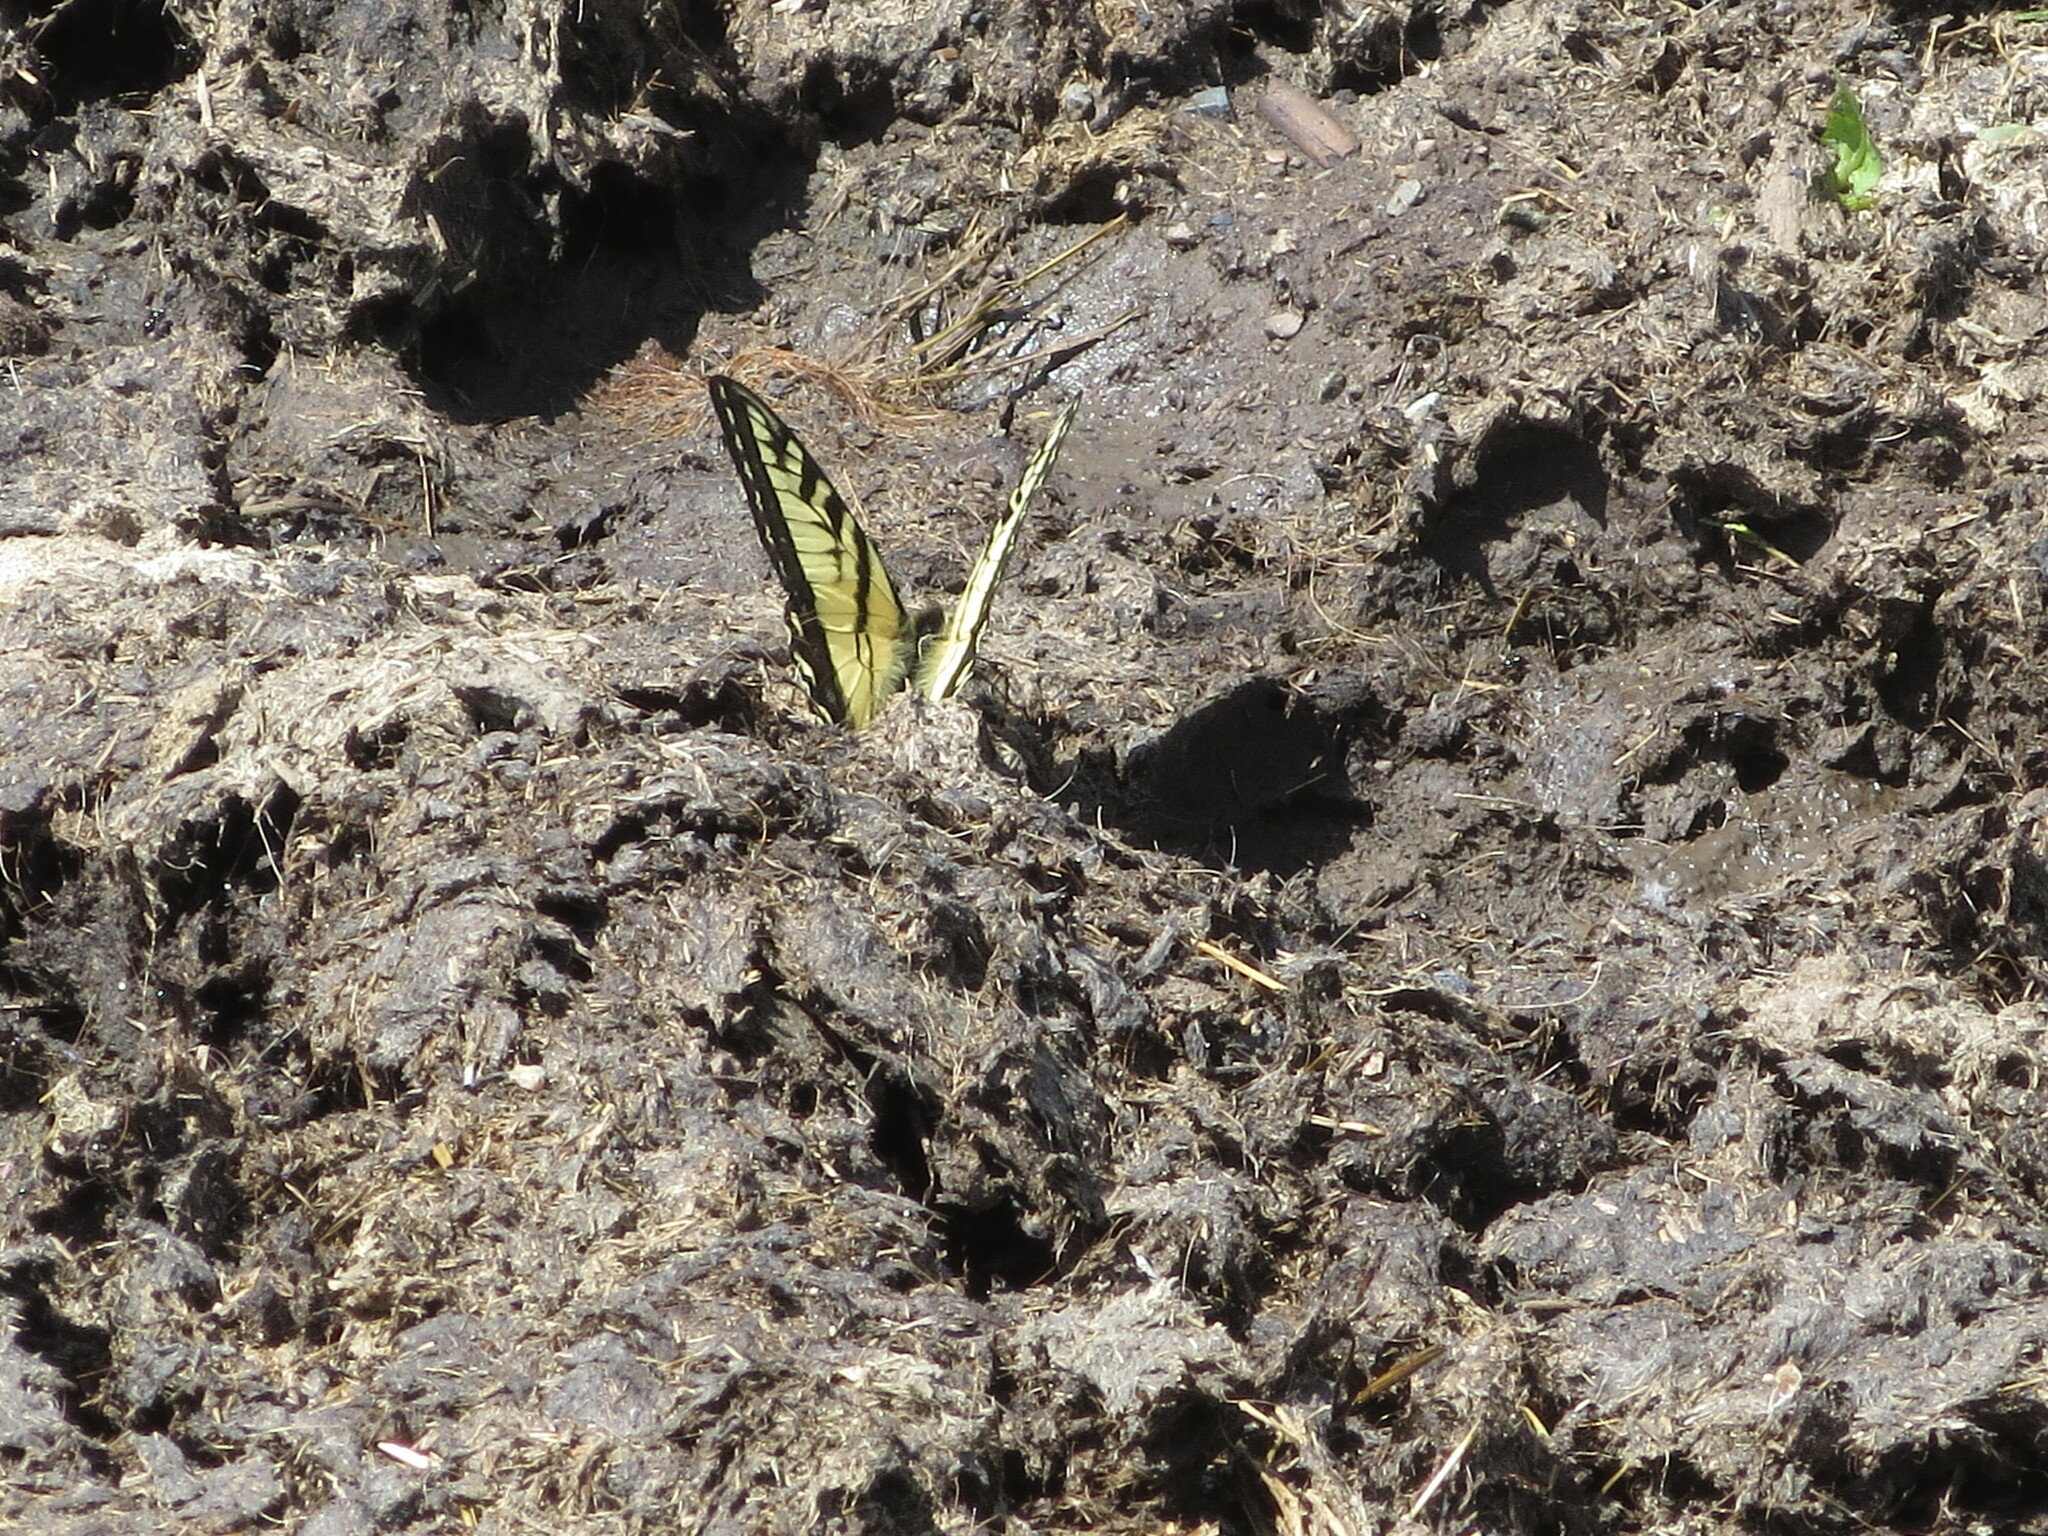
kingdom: Animalia
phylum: Arthropoda
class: Insecta
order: Lepidoptera
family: Papilionidae
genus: Papilio
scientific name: Papilio canadensis
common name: Canadian tiger swallowtail
